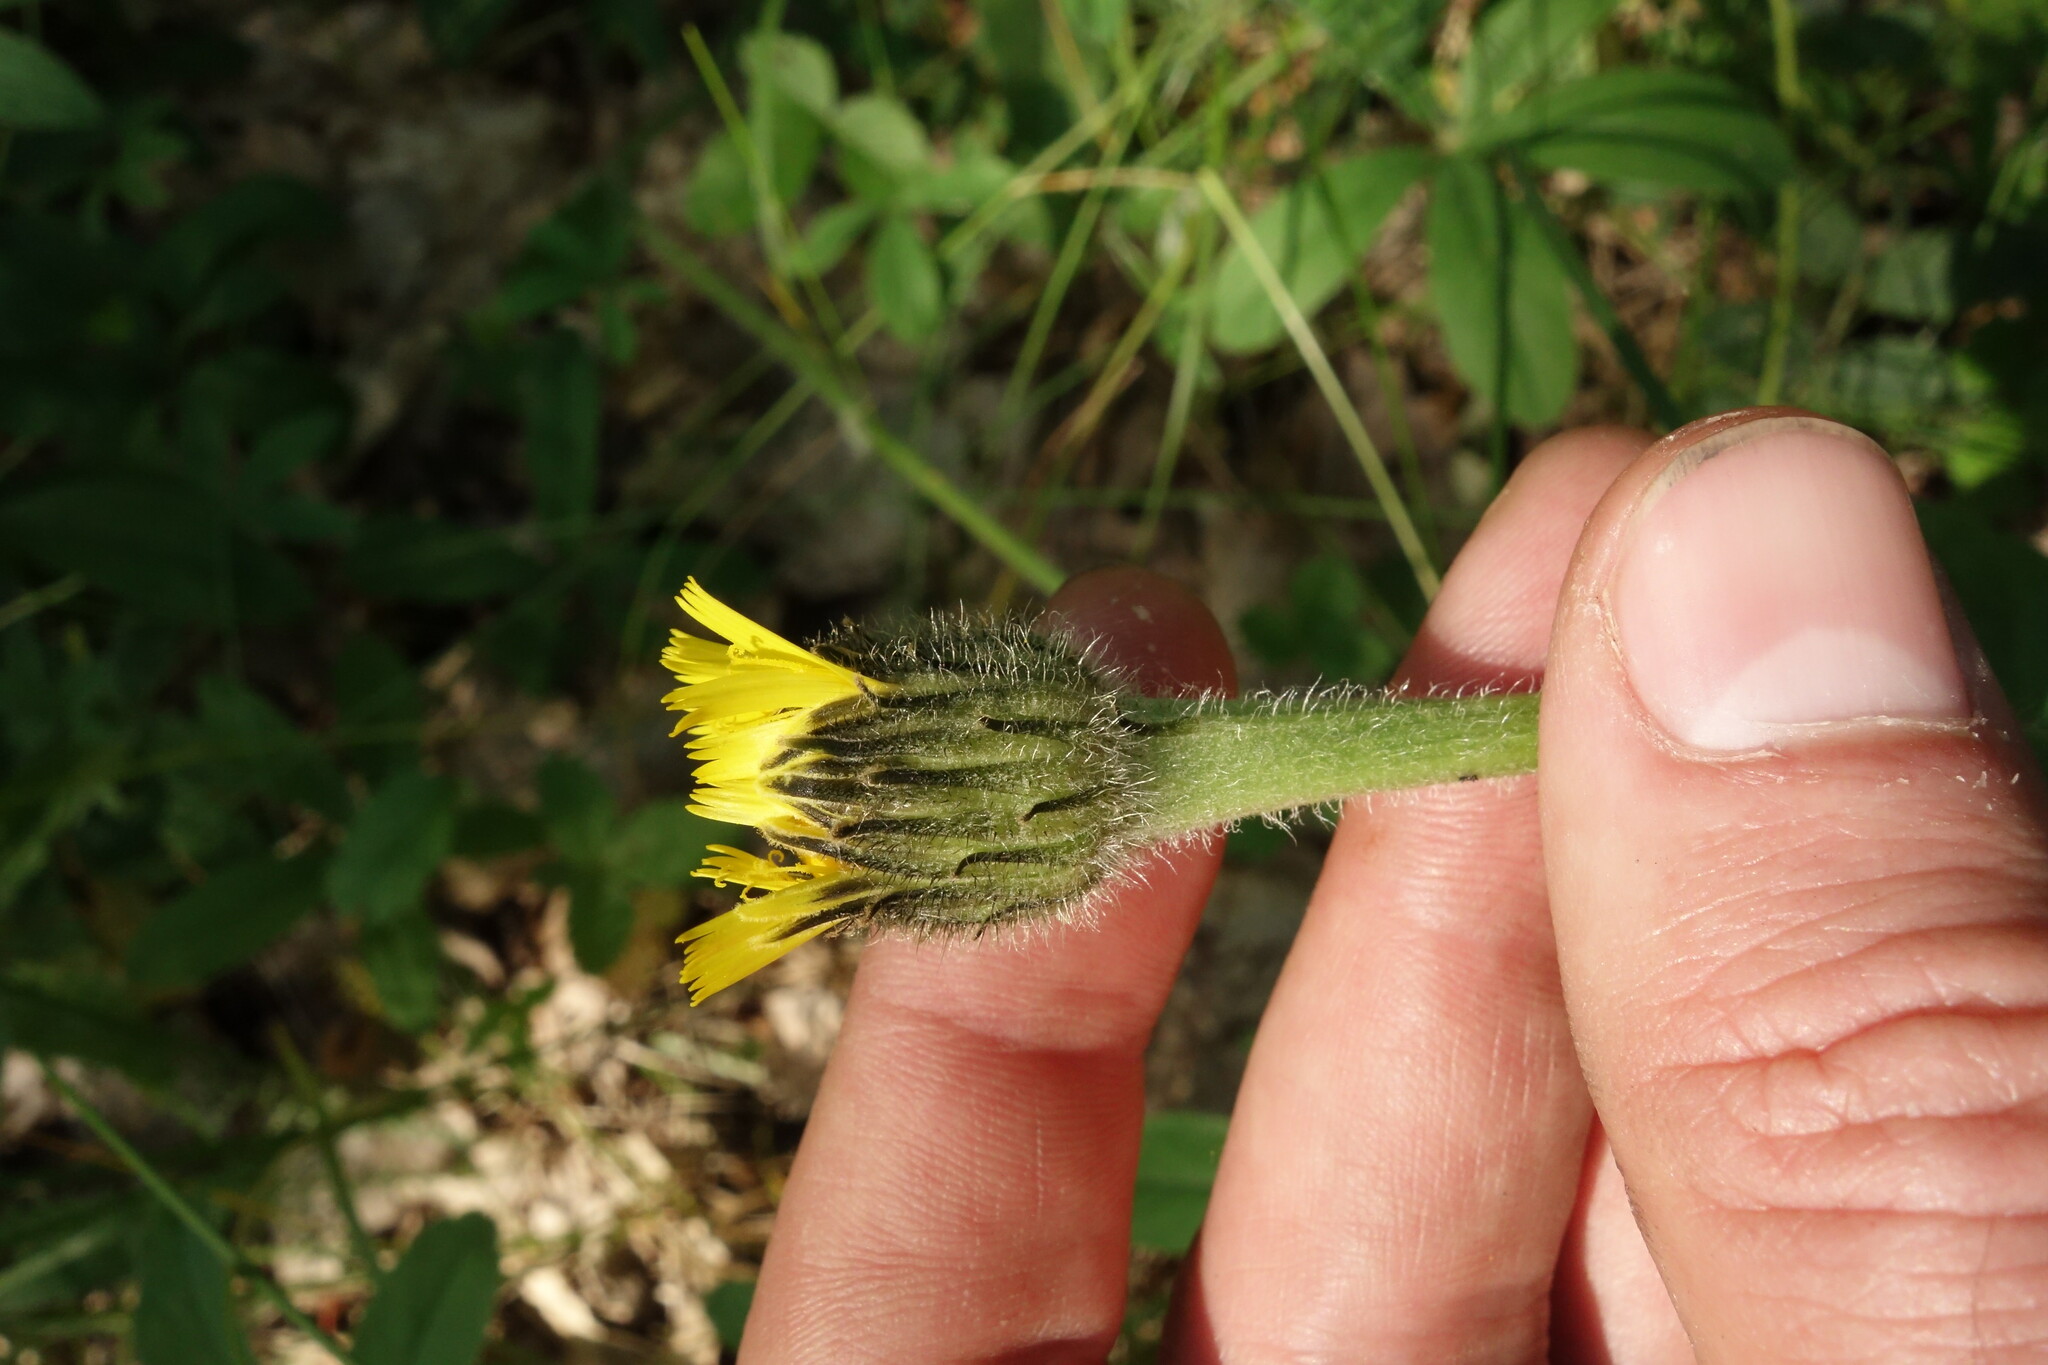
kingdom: Plantae
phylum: Tracheophyta
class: Magnoliopsida
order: Asterales
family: Asteraceae
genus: Trommsdorffia
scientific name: Trommsdorffia maculata
